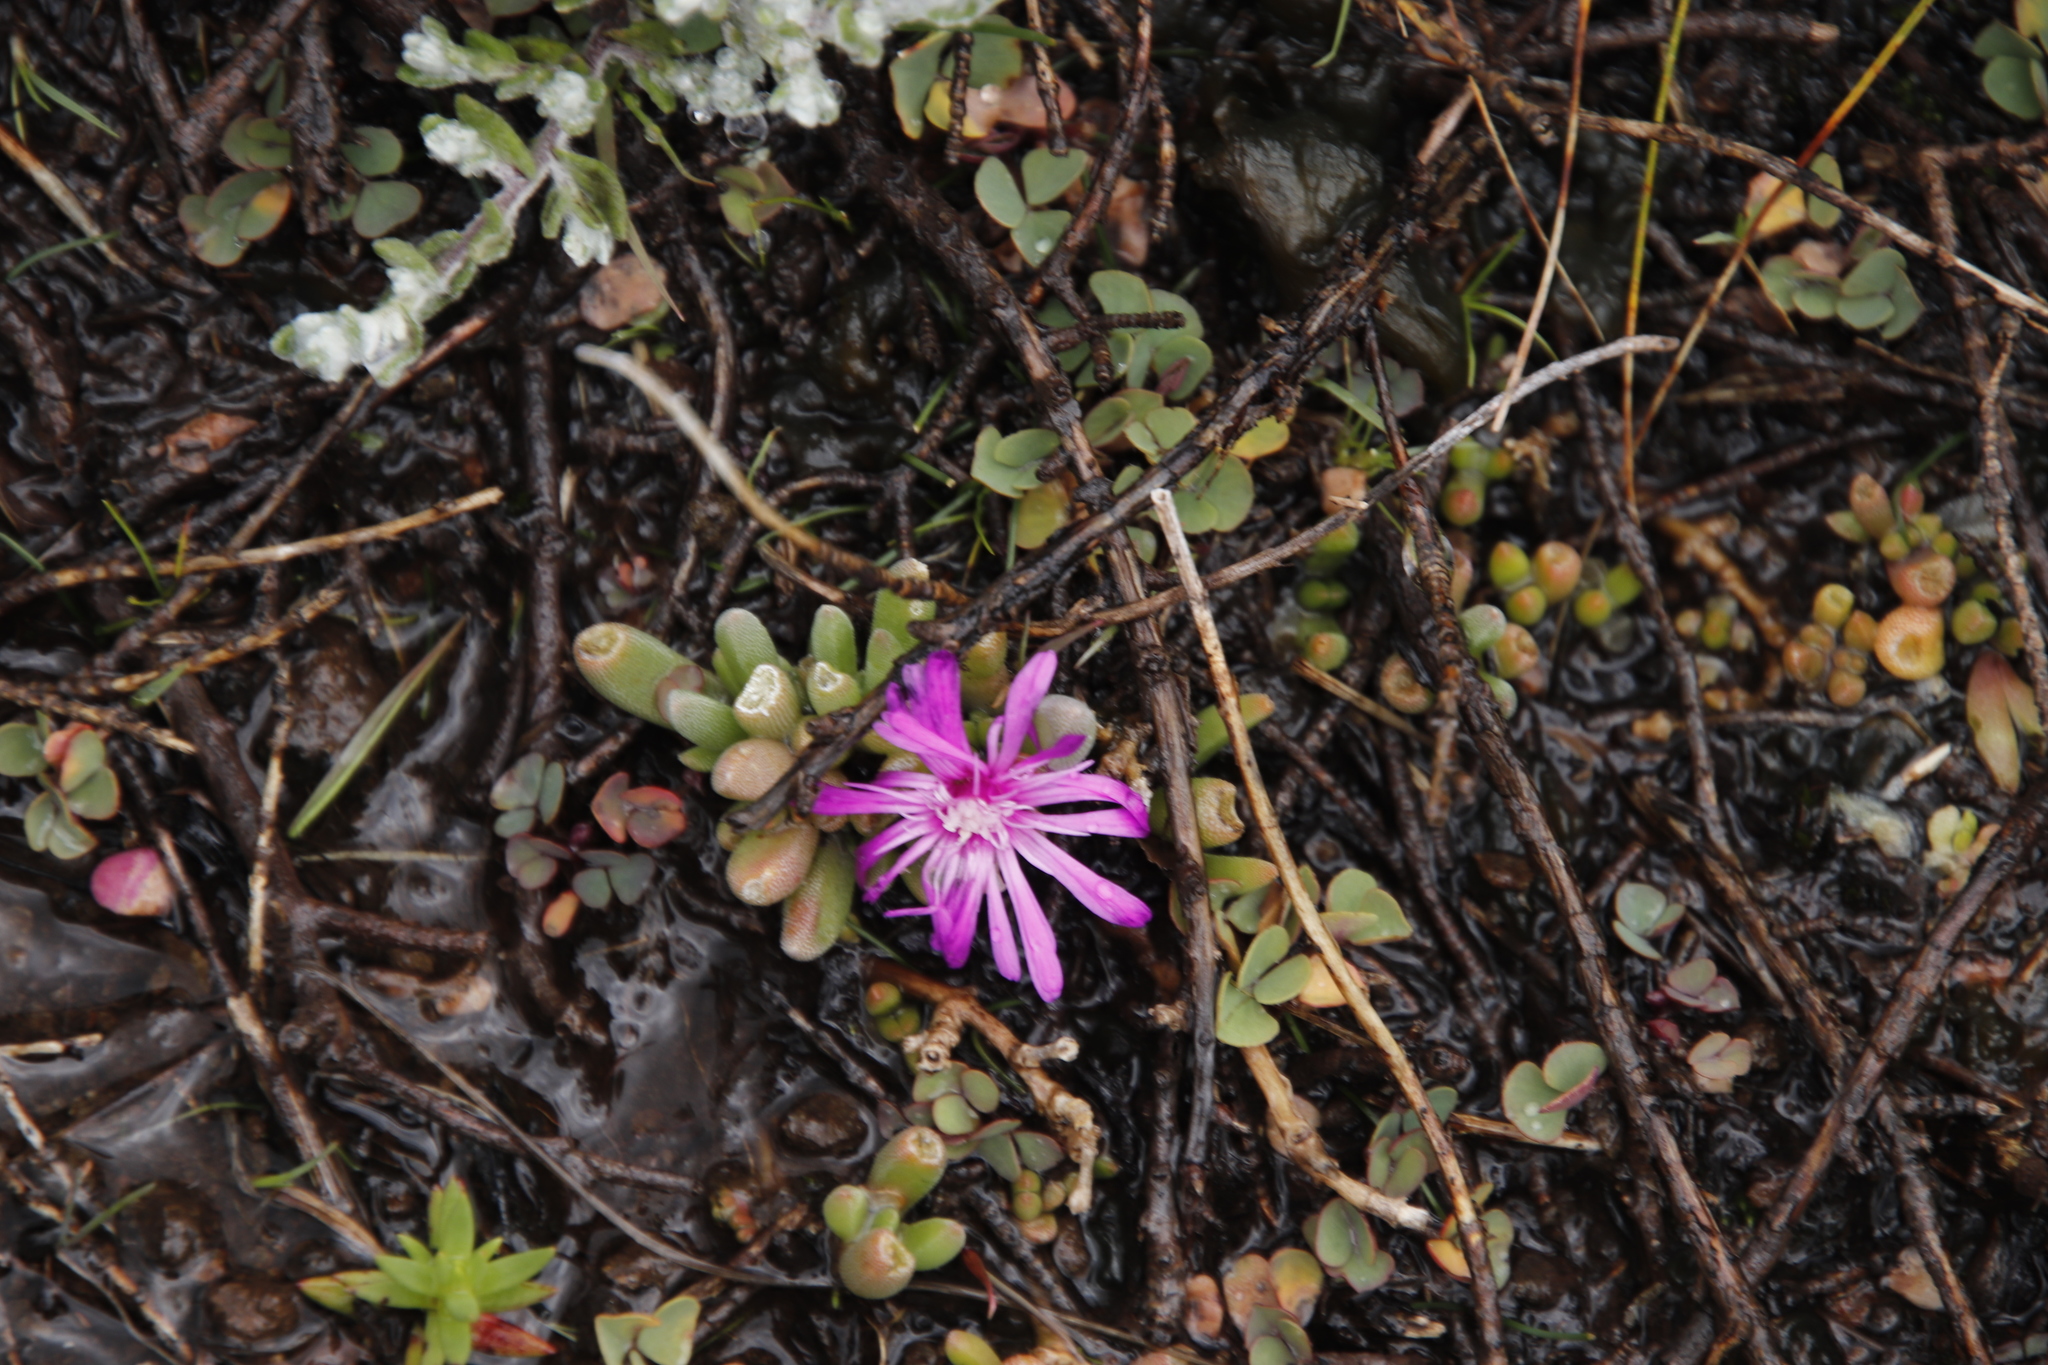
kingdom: Plantae
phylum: Tracheophyta
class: Magnoliopsida
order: Caryophyllales
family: Aizoaceae
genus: Delosperma
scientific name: Delosperma basuticum
